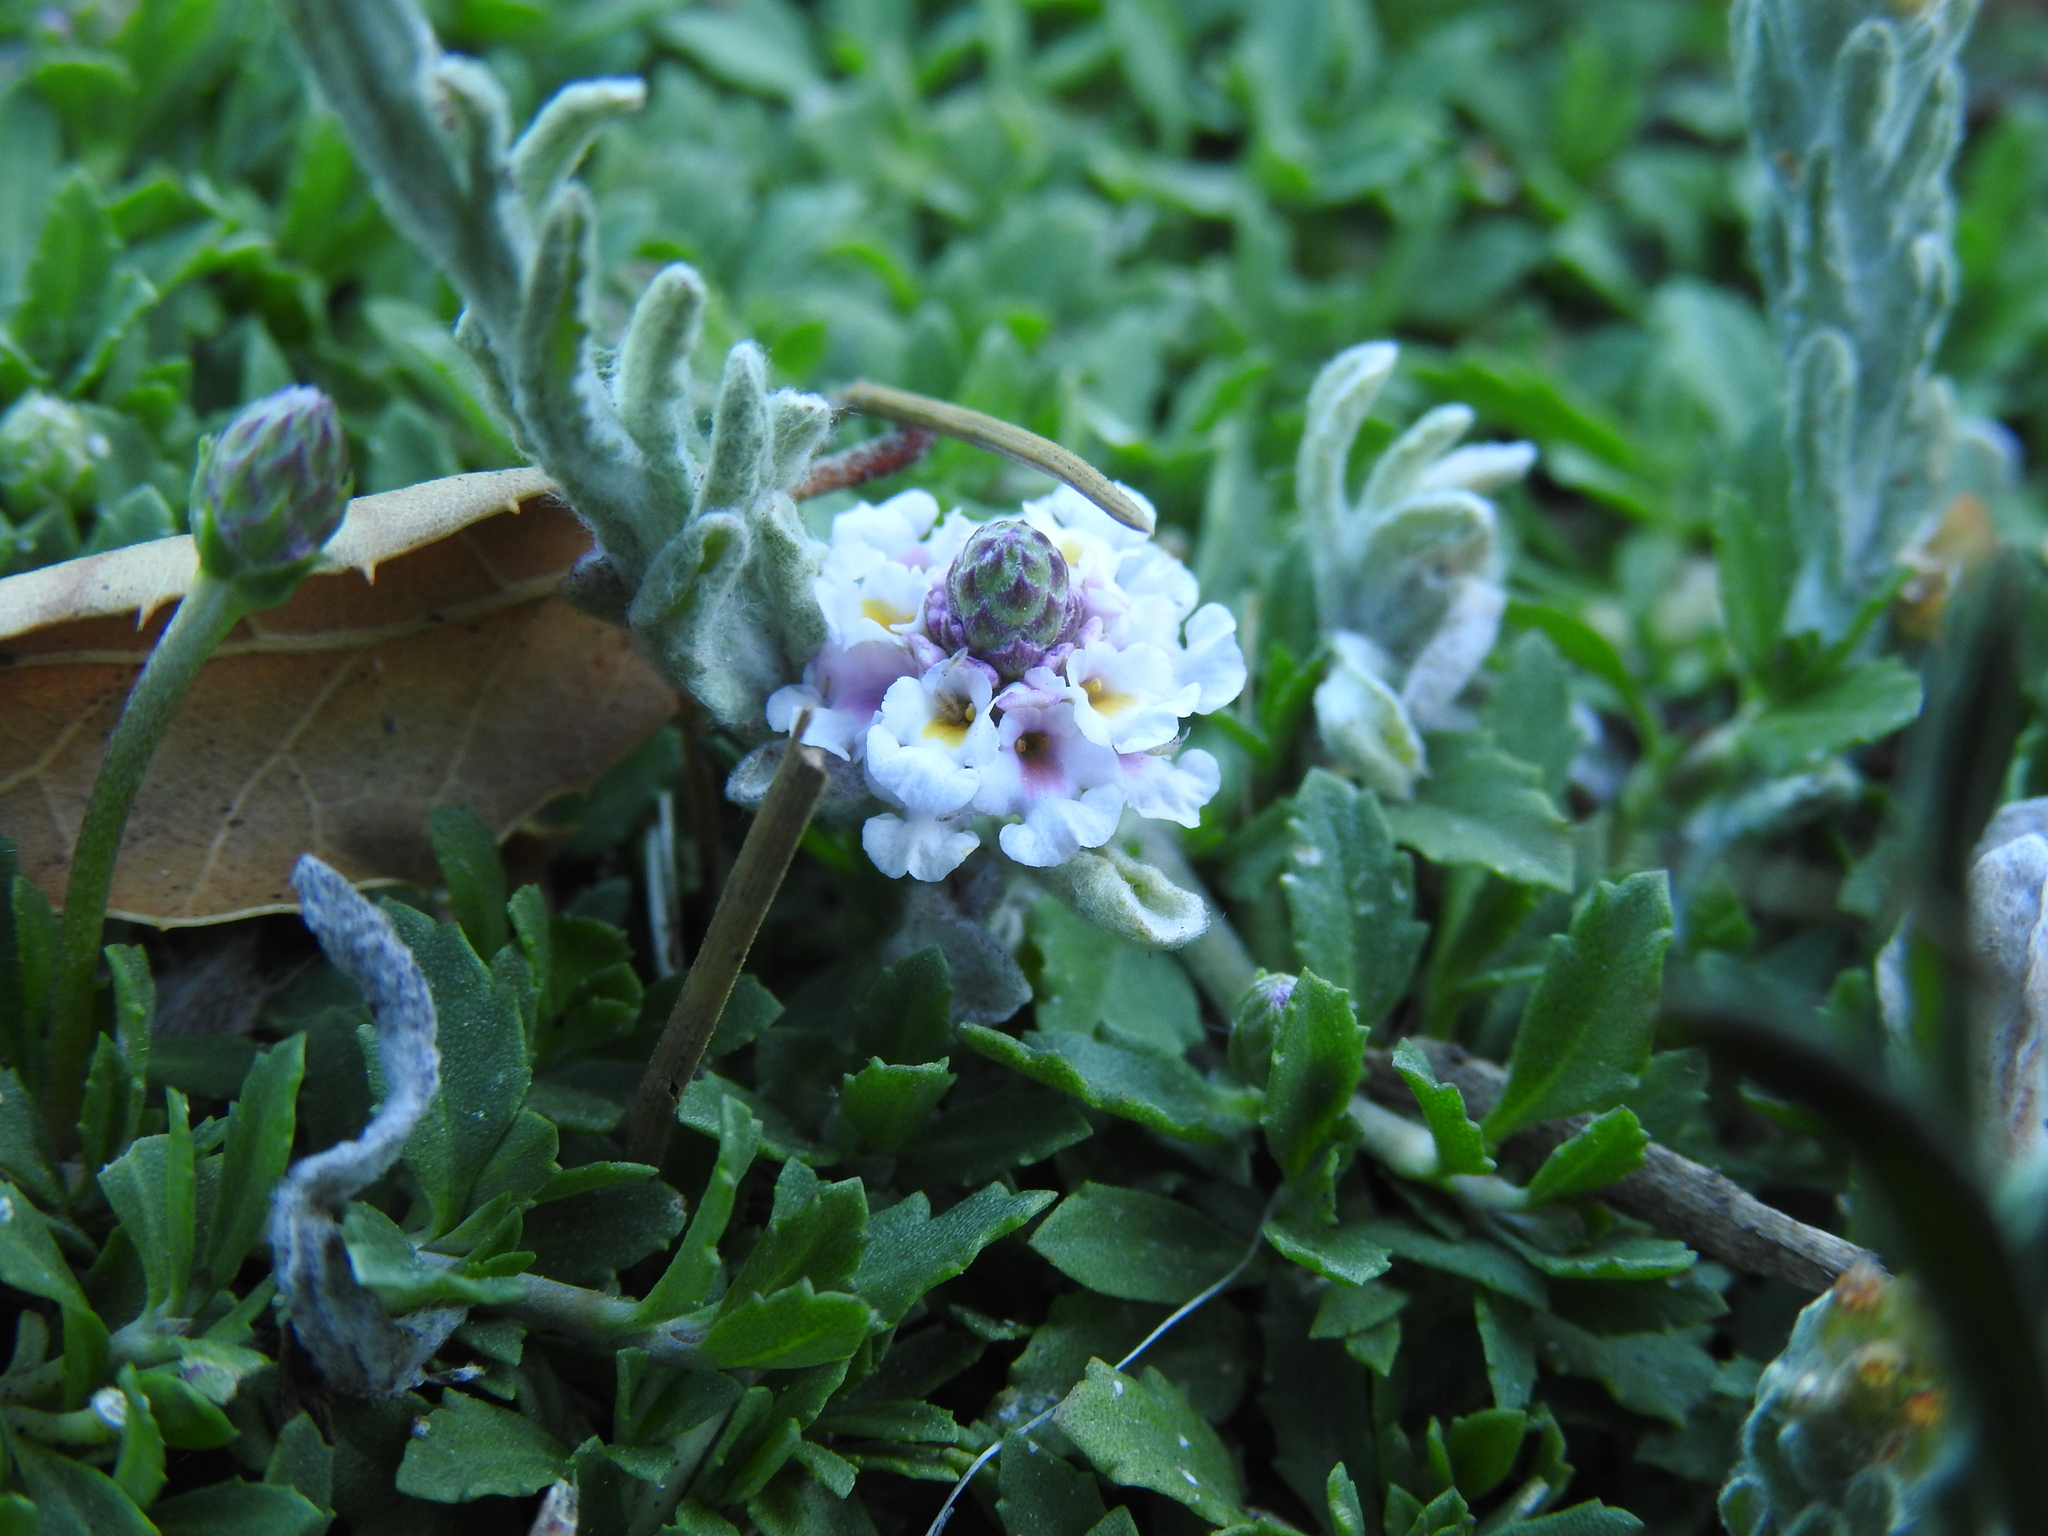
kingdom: Plantae
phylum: Tracheophyta
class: Magnoliopsida
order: Lamiales
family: Verbenaceae
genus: Phyla
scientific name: Phyla nodiflora
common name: Frogfruit
